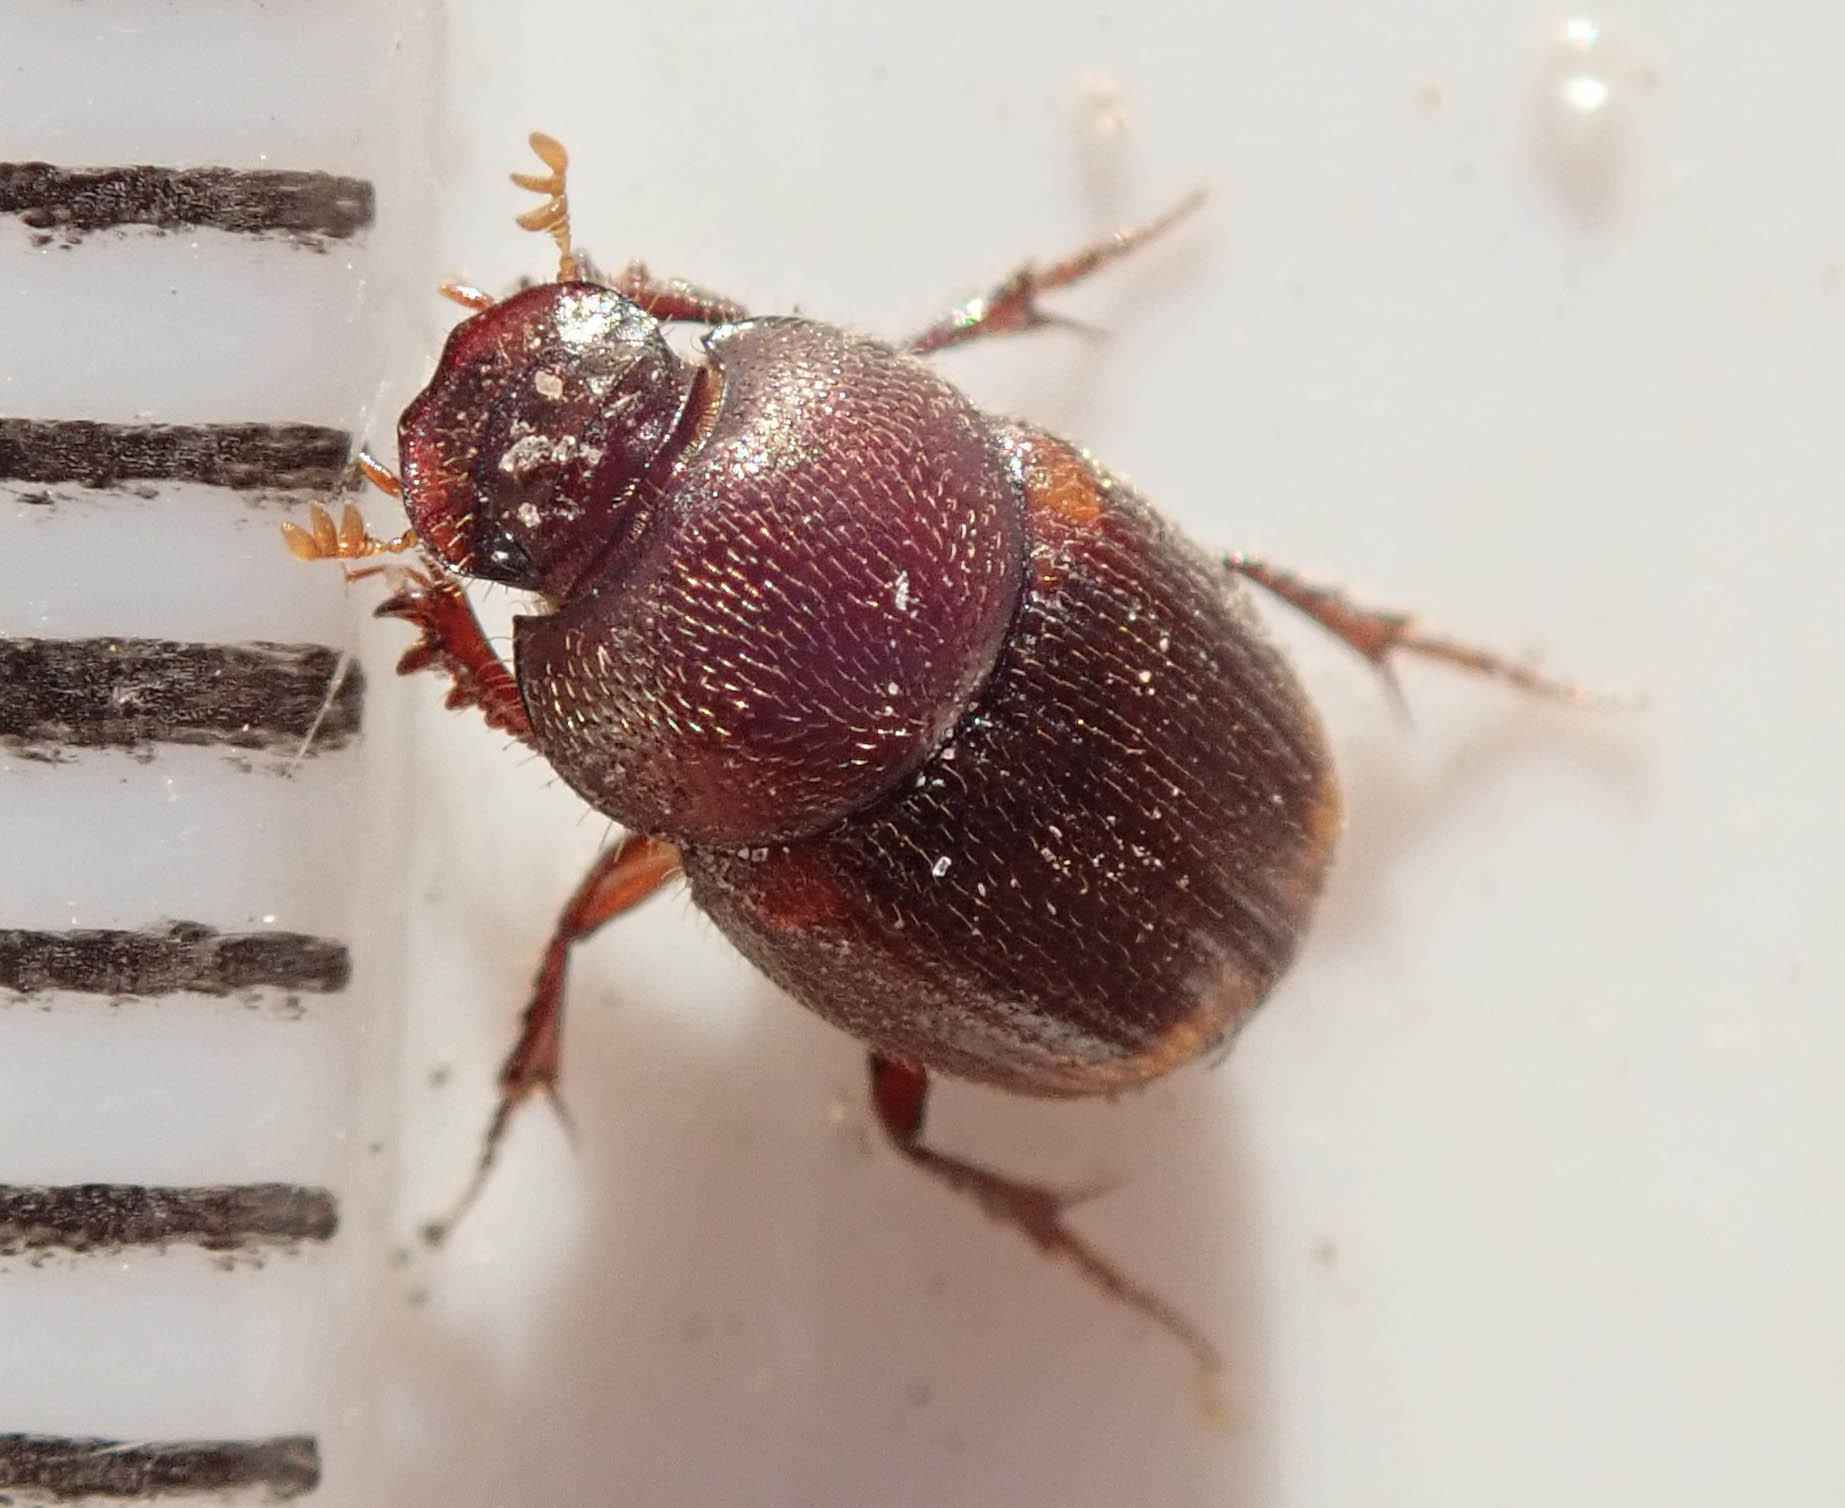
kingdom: Animalia
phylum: Arthropoda
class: Insecta
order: Coleoptera
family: Scarabaeidae
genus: Onthophagus
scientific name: Onthophagus quadrimaculatus
